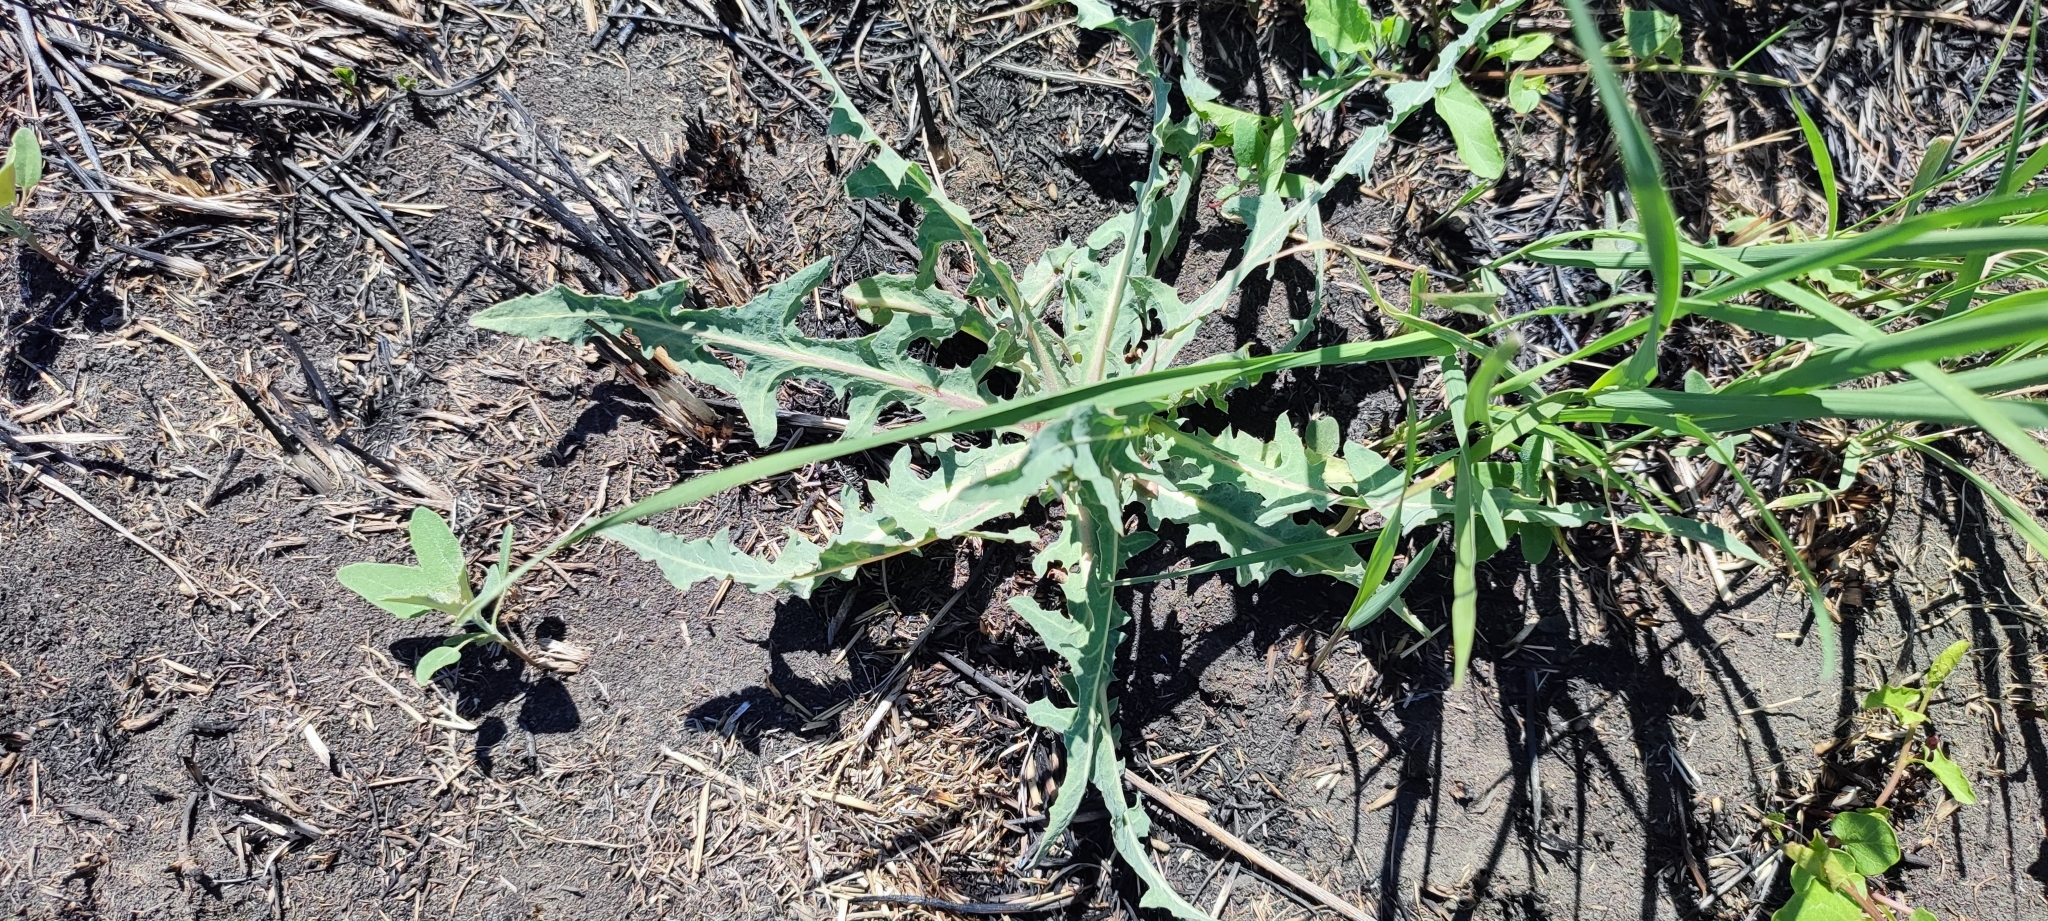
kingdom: Plantae
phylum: Tracheophyta
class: Magnoliopsida
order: Asterales
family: Asteraceae
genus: Lactuca
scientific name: Lactuca tatarica
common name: Blue lettuce
